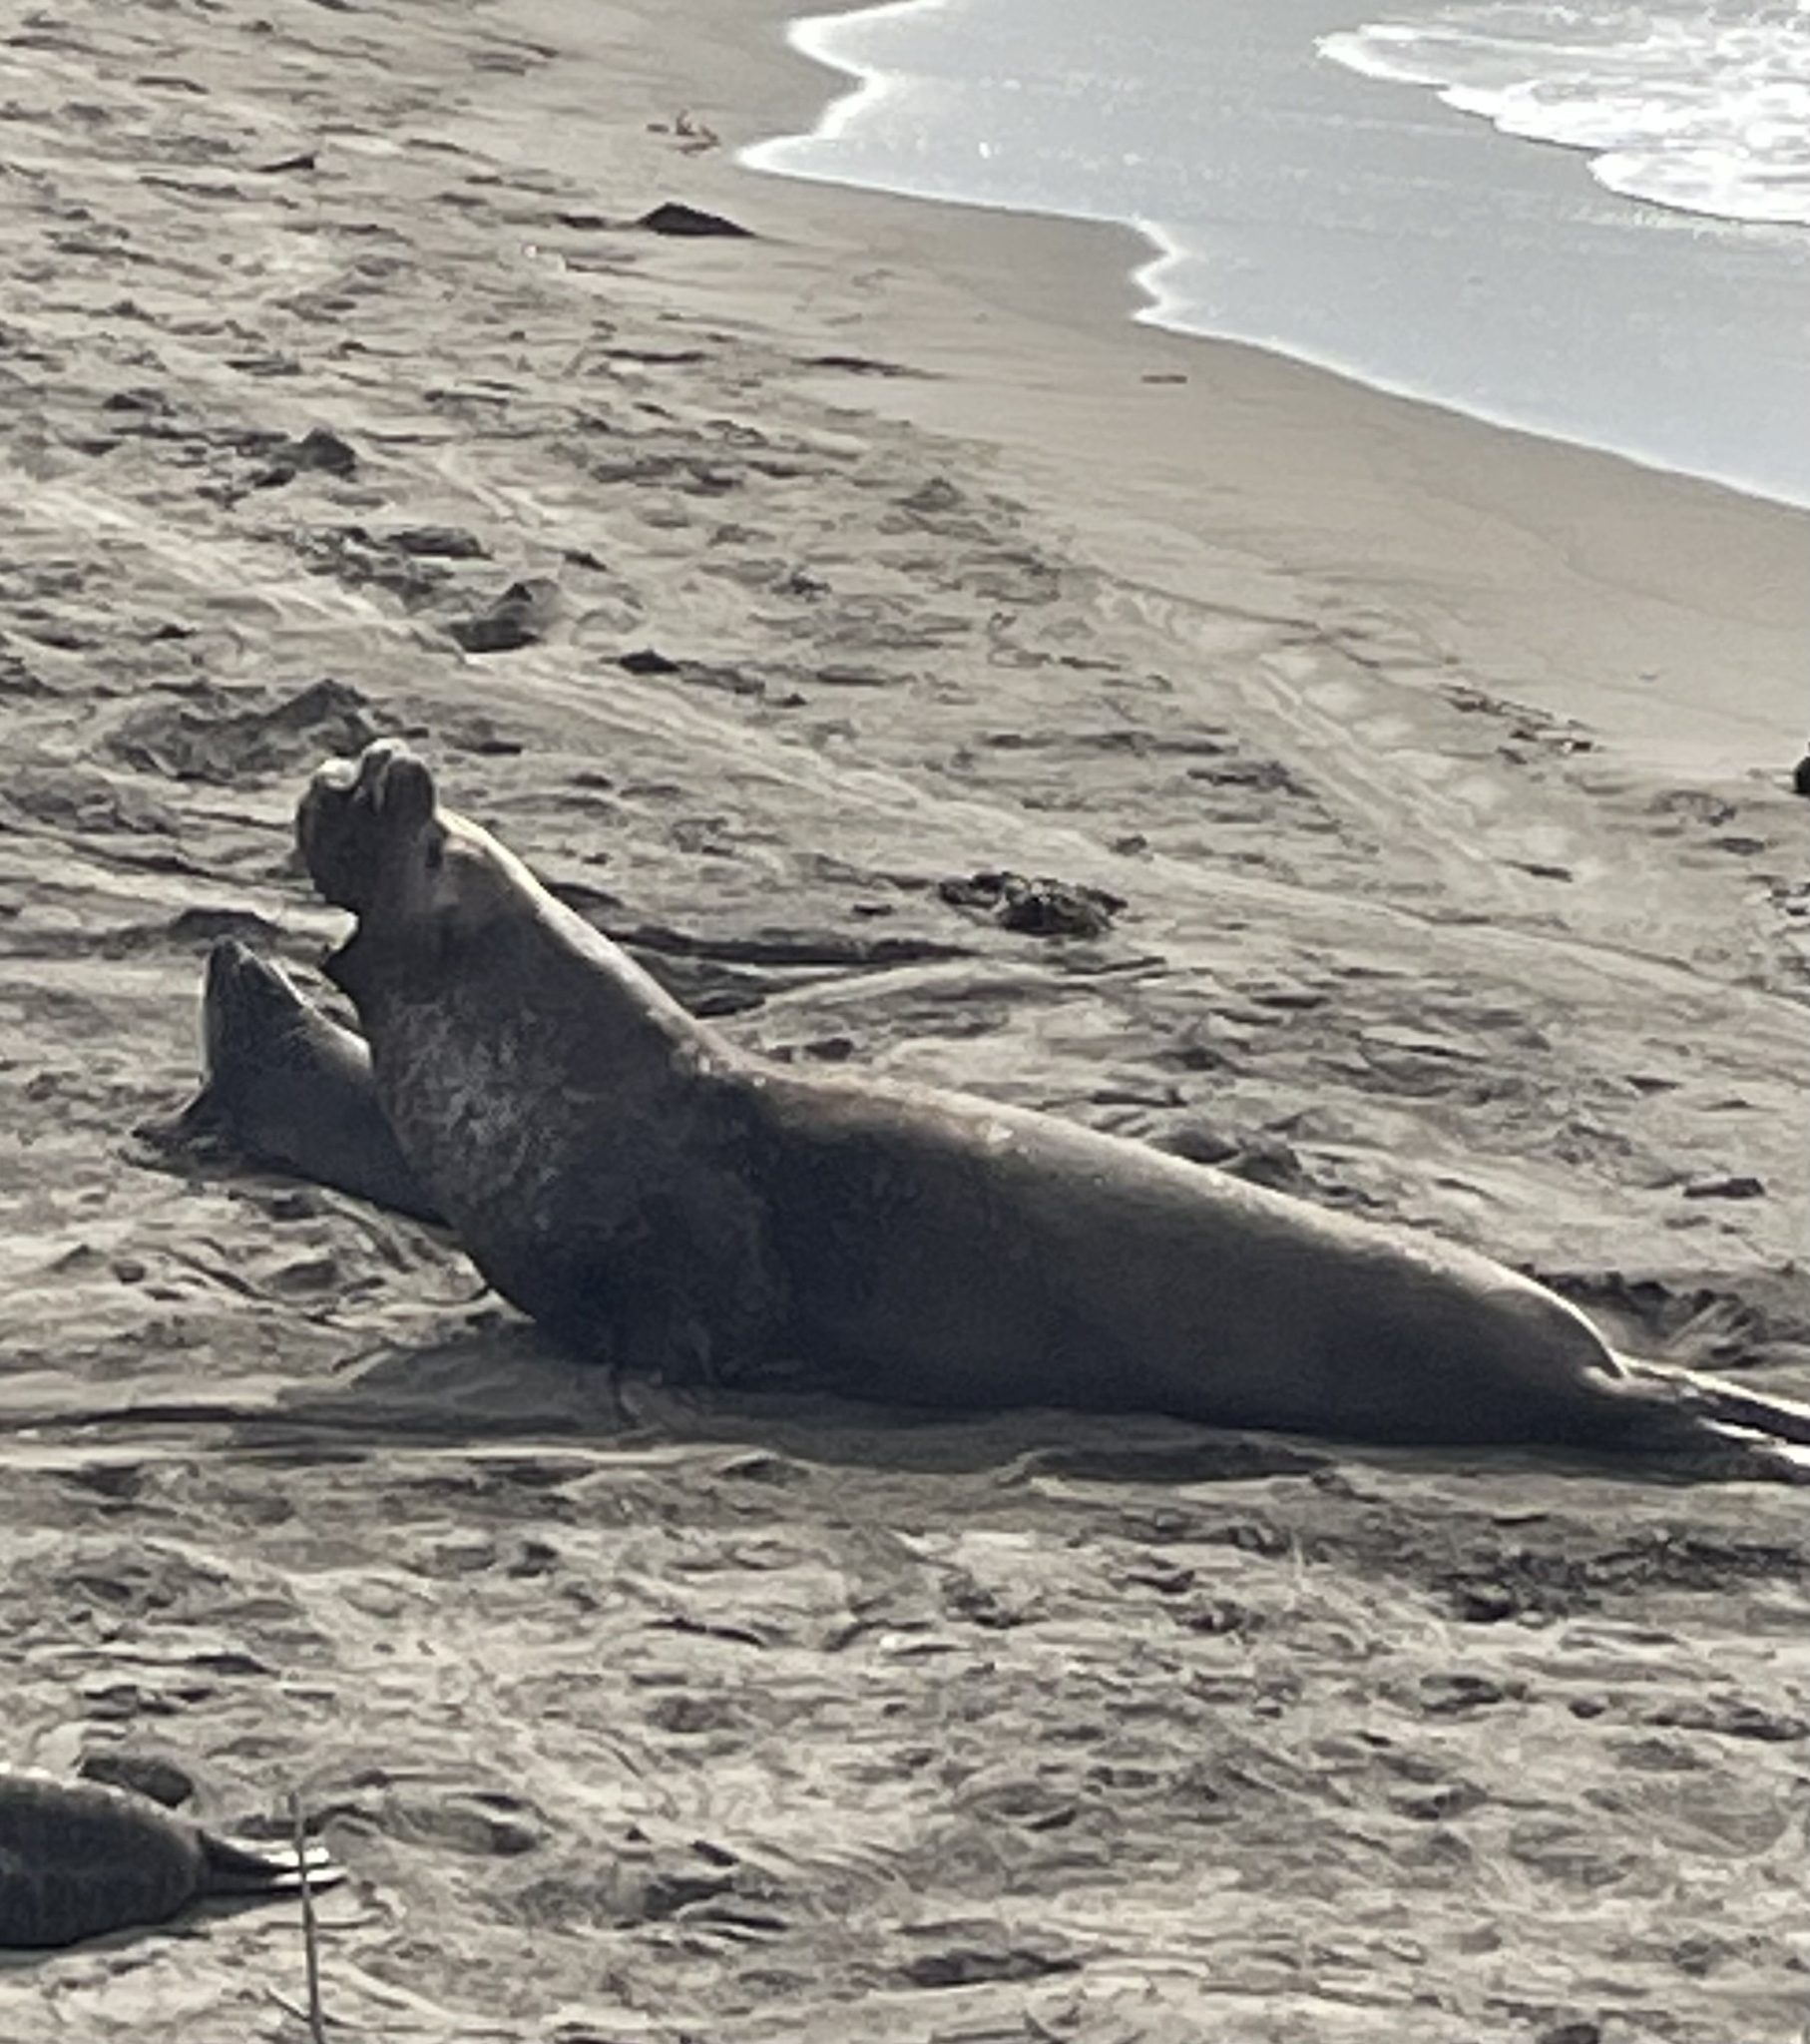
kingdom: Animalia
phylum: Chordata
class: Mammalia
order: Carnivora
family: Phocidae
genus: Mirounga
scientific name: Mirounga angustirostris
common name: Northern elephant seal
